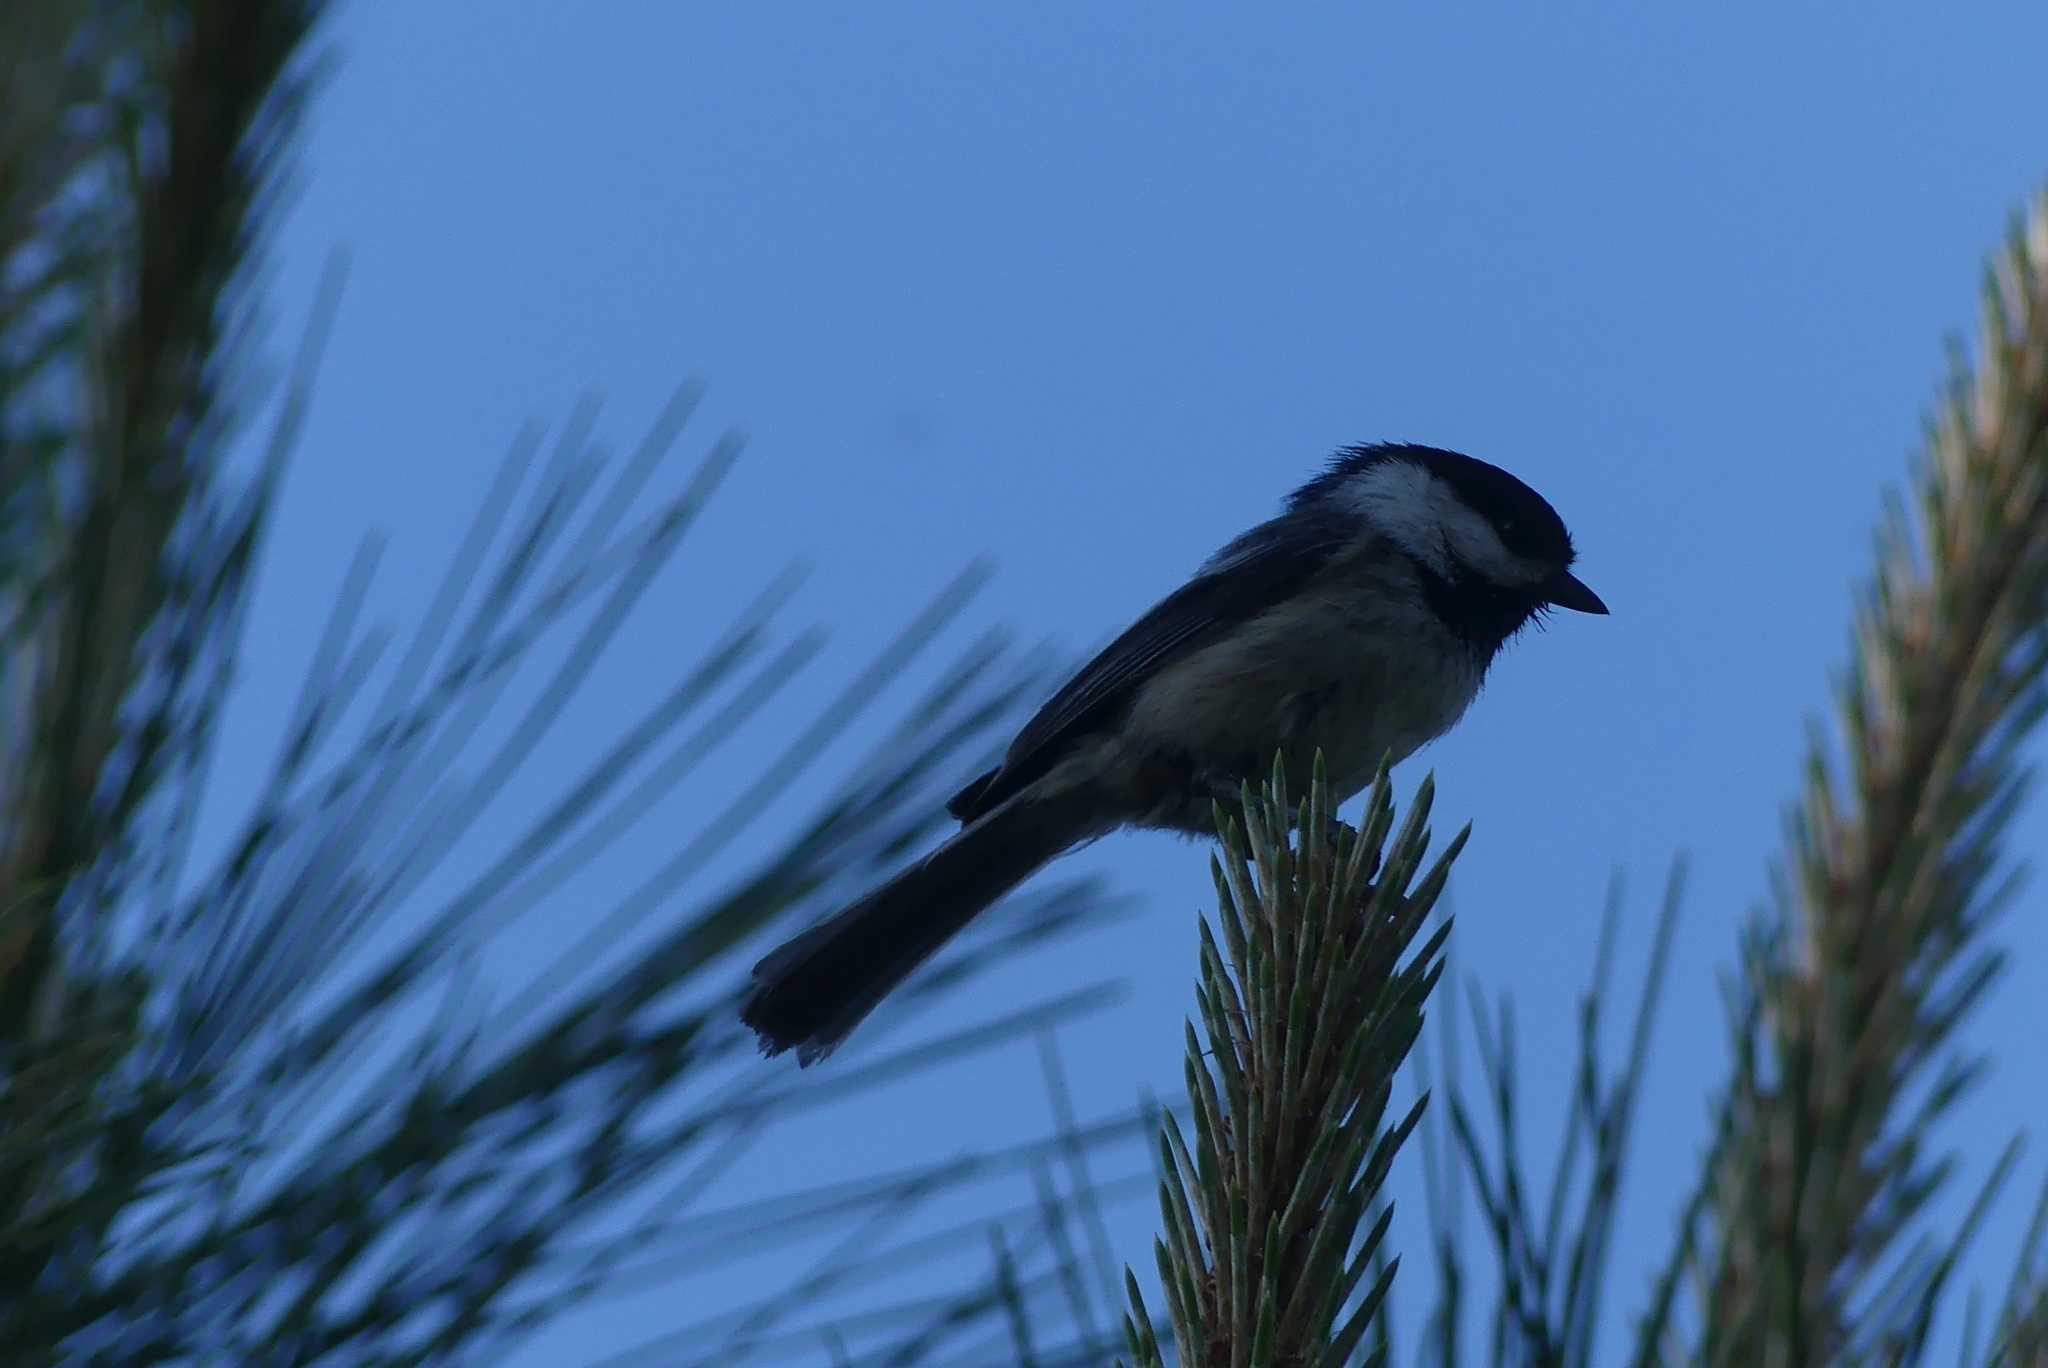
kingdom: Animalia
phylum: Chordata
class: Aves
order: Passeriformes
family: Paridae
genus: Poecile
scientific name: Poecile atricapillus
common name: Black-capped chickadee
